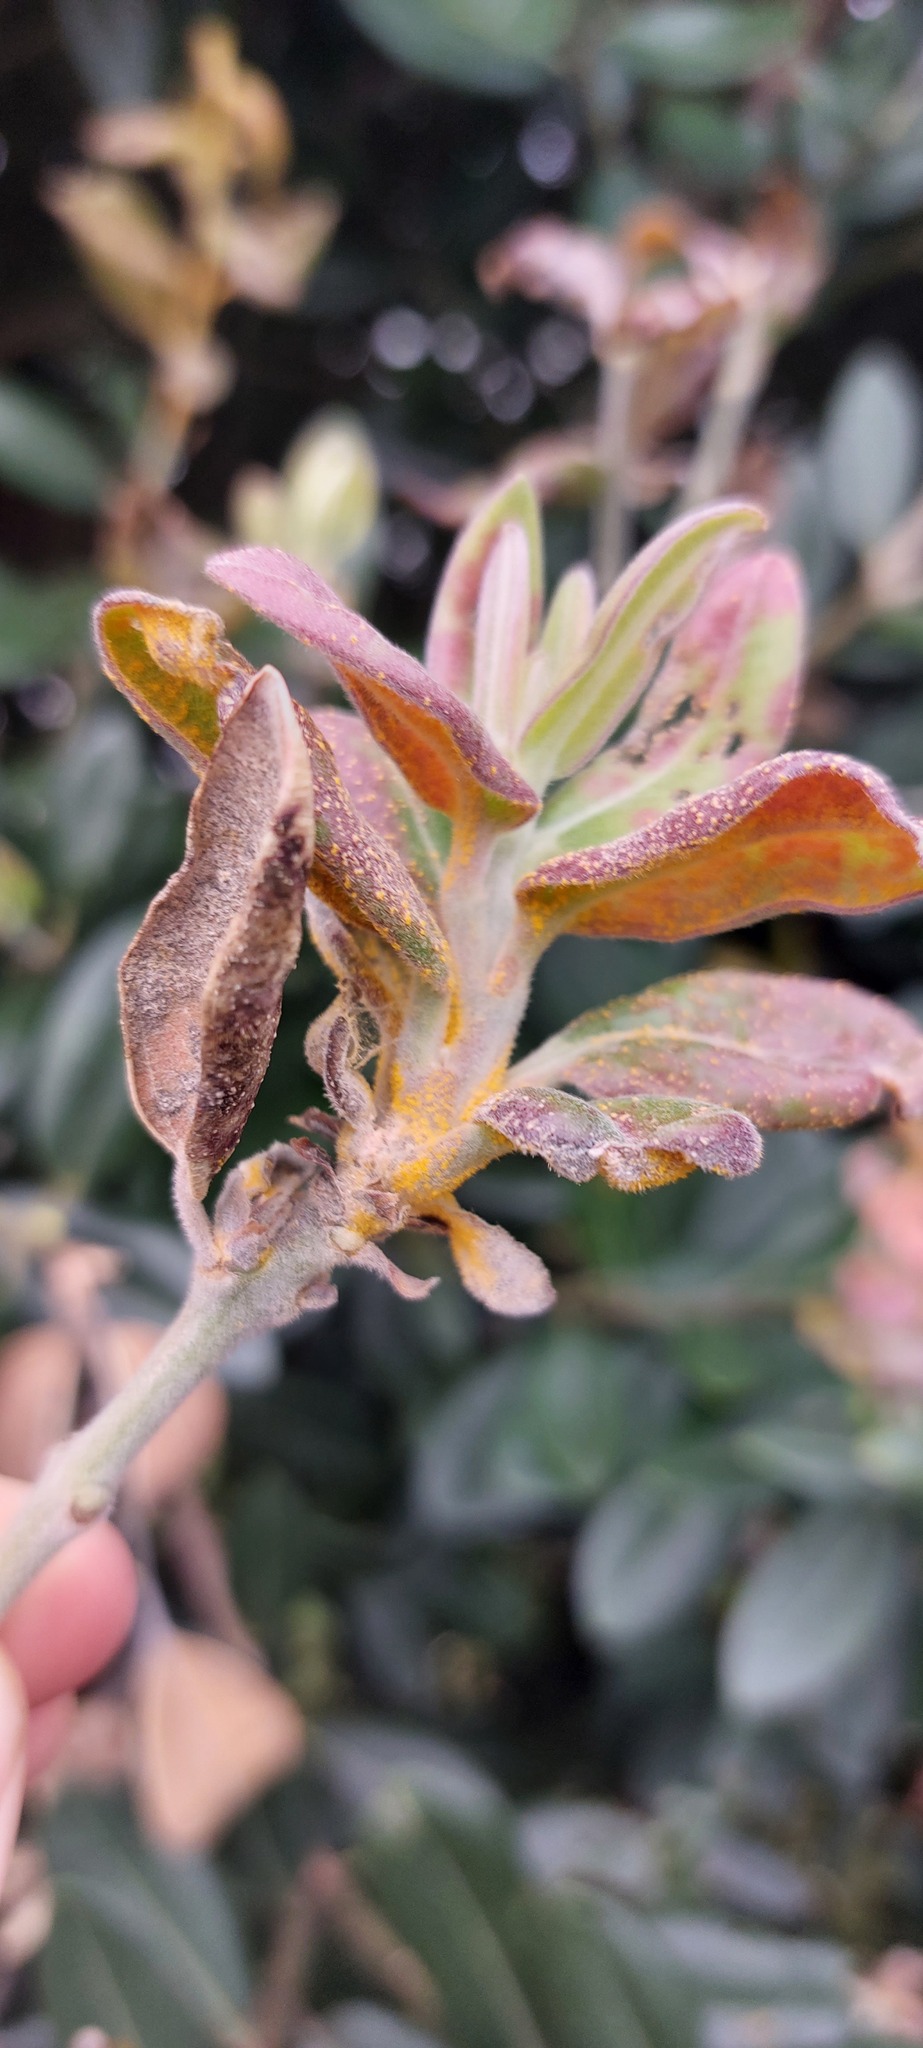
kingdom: Fungi
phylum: Basidiomycota
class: Pucciniomycetes
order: Pucciniales
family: Sphaerophragmiaceae
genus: Austropuccinia
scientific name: Austropuccinia psidii
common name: Myrtle rust
